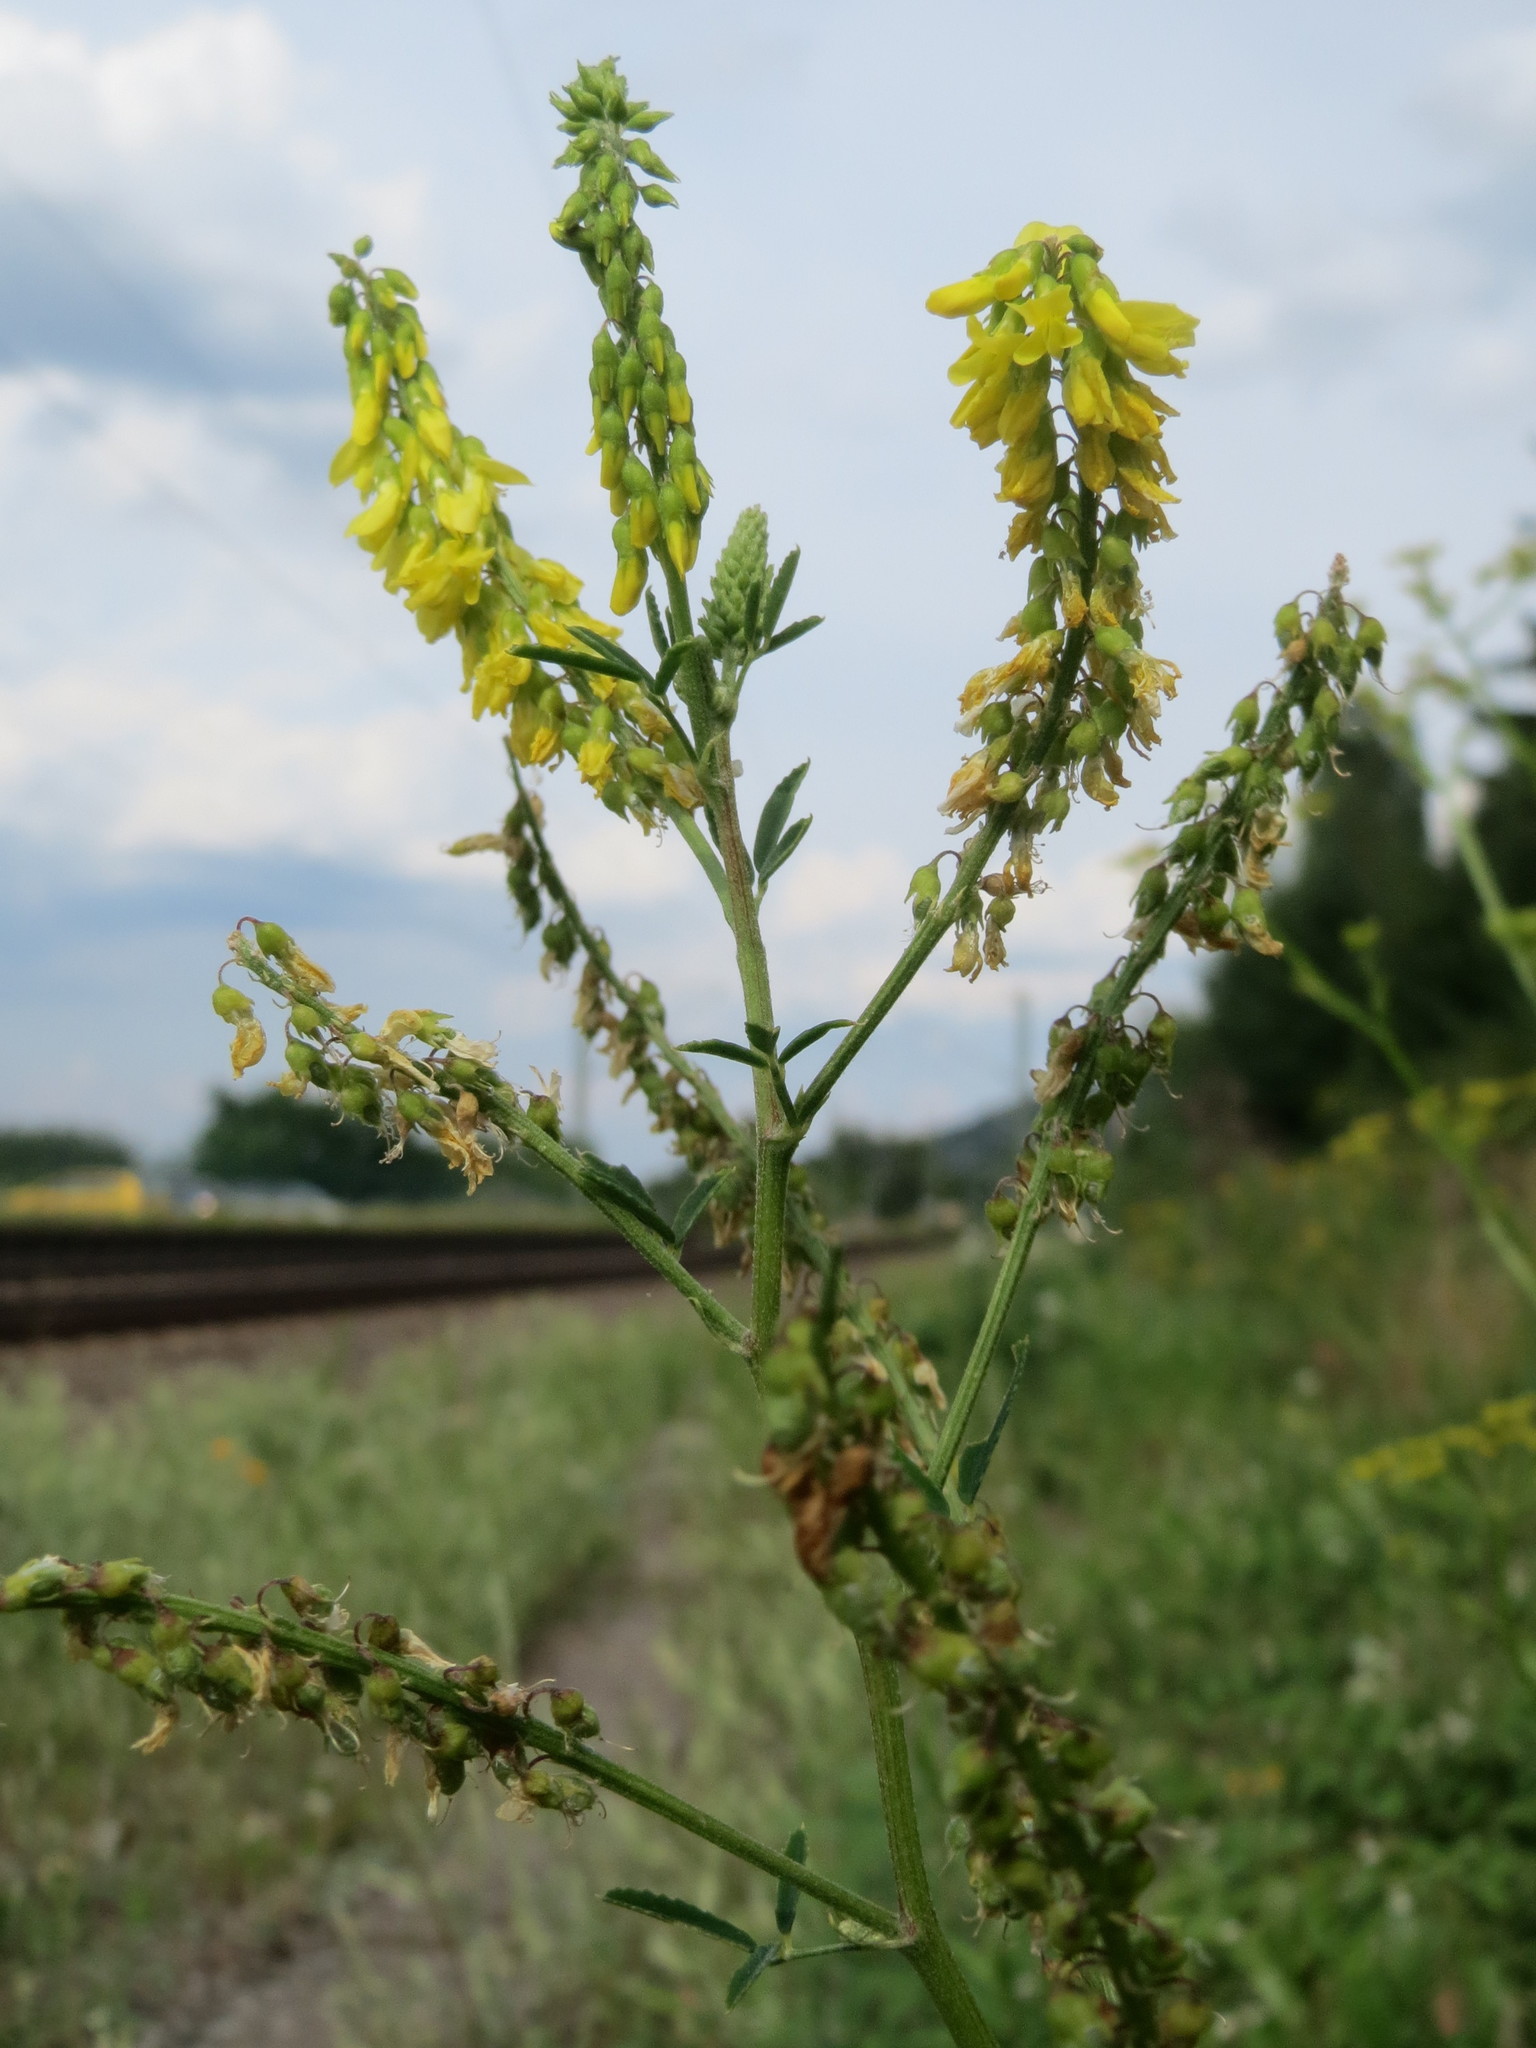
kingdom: Plantae
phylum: Tracheophyta
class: Magnoliopsida
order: Fabales
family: Fabaceae
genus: Melilotus
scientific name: Melilotus officinalis
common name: Sweetclover
